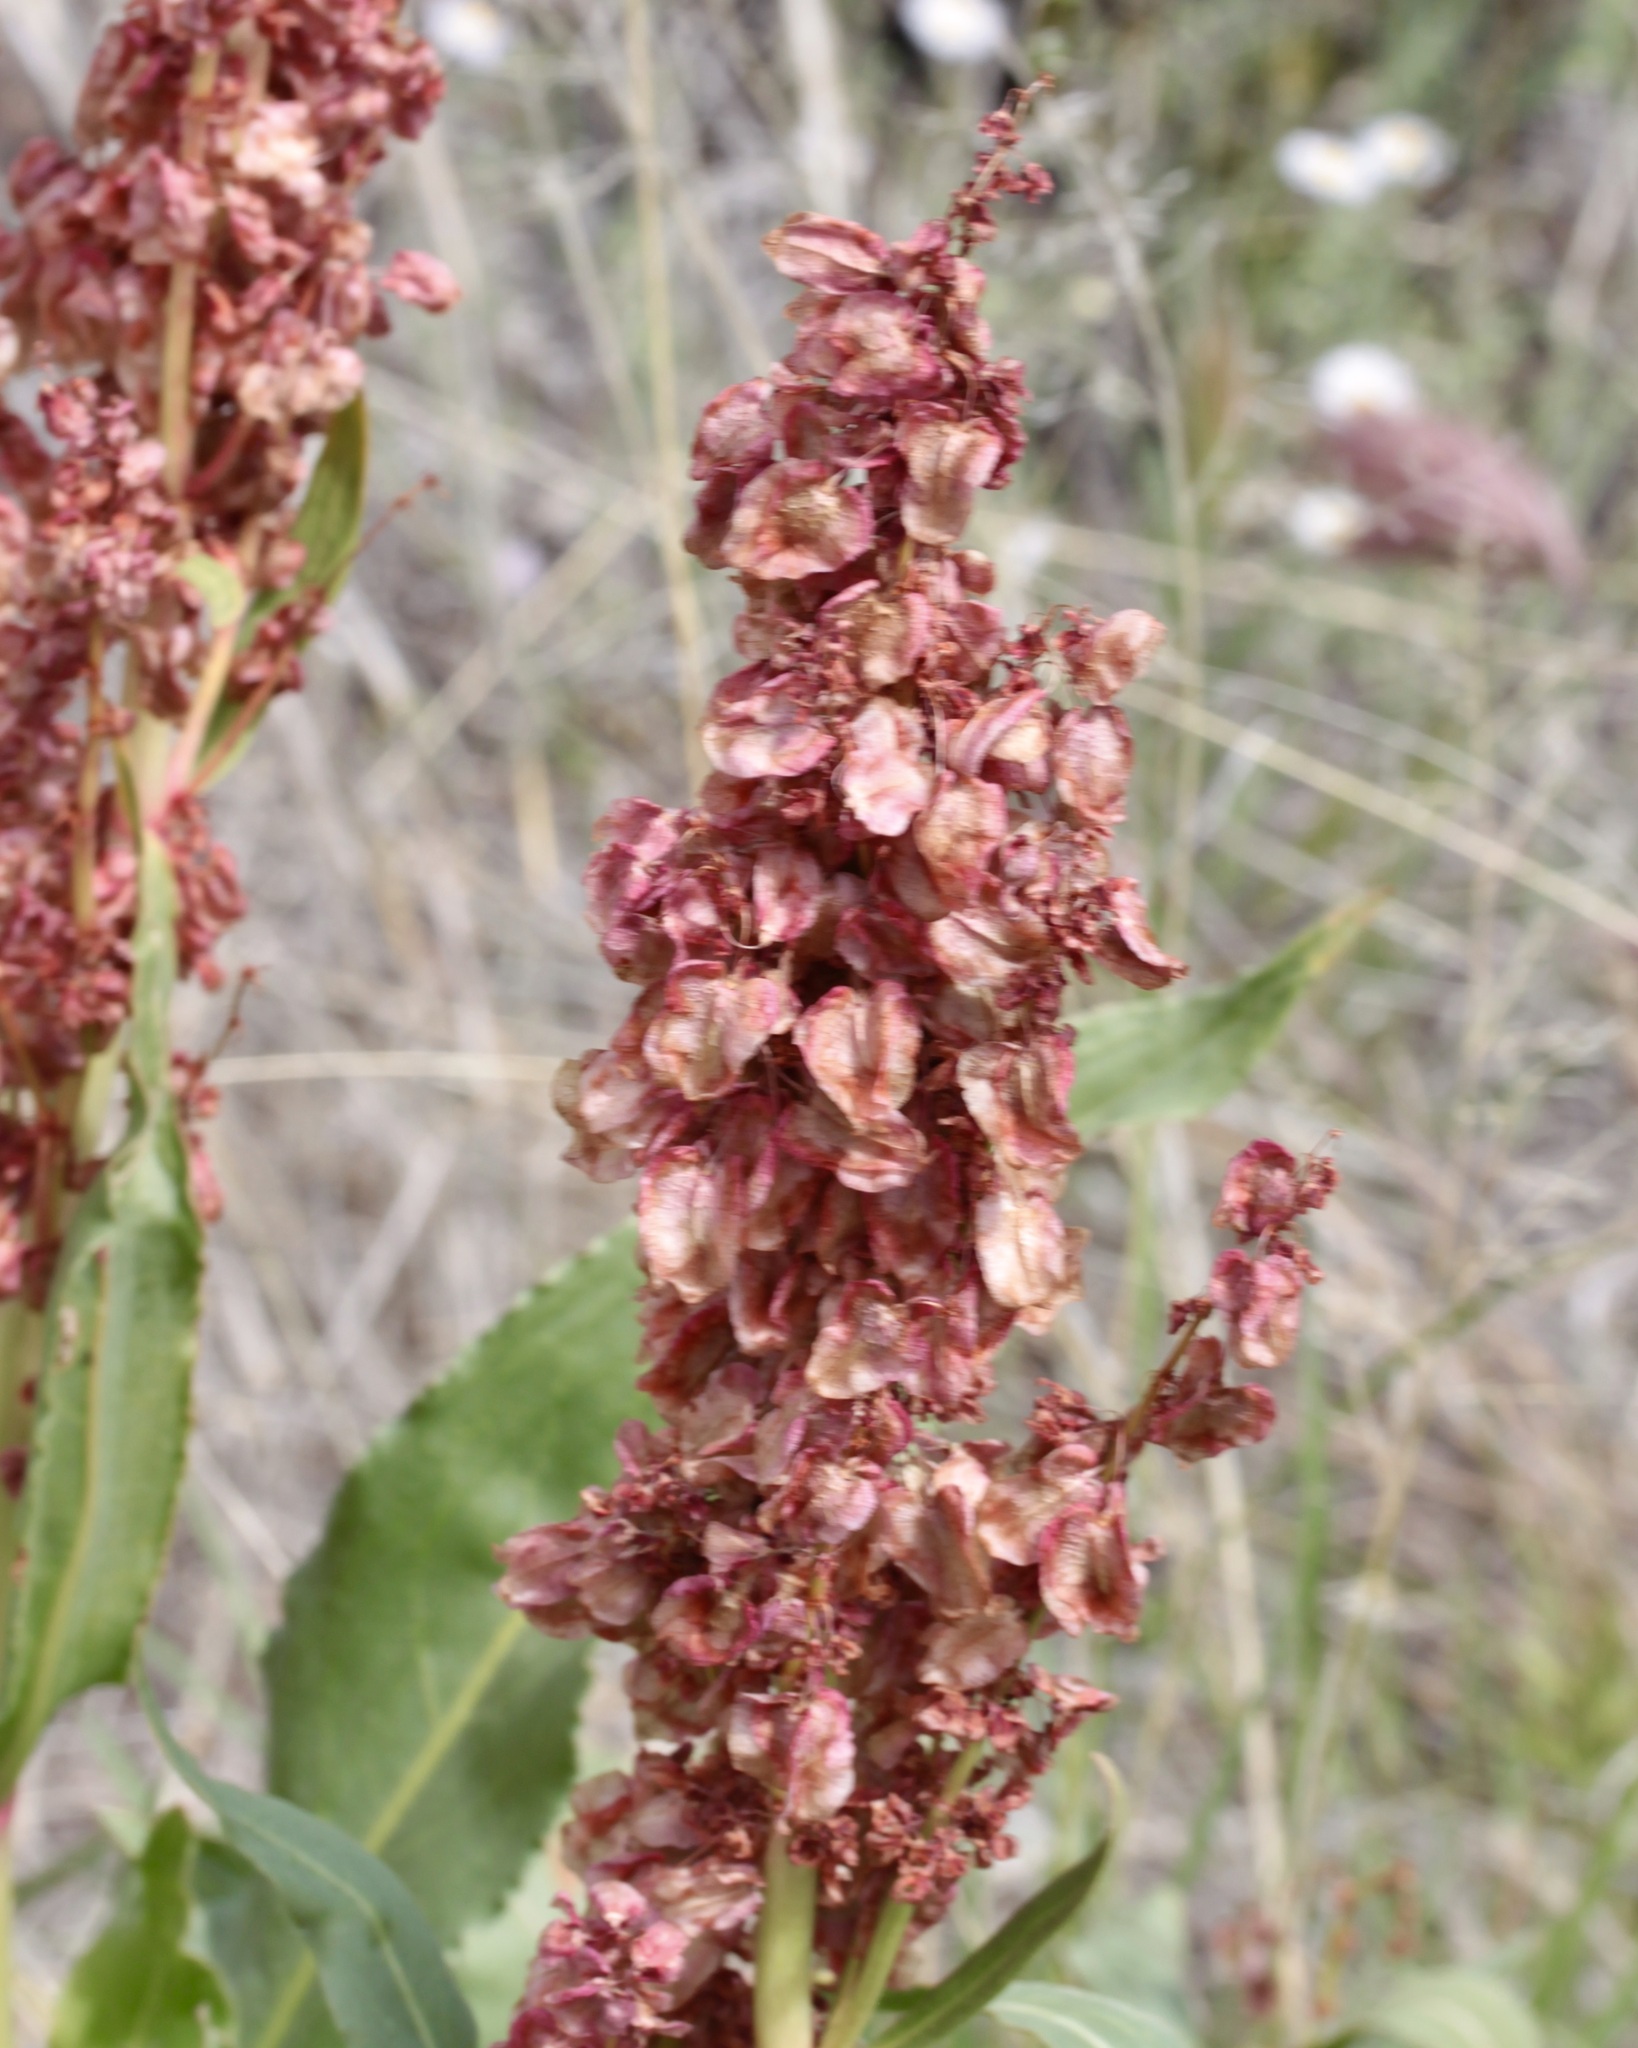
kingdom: Plantae
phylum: Tracheophyta
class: Magnoliopsida
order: Caryophyllales
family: Polygonaceae
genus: Rumex
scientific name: Rumex hymenosepalus
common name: Ganagra
